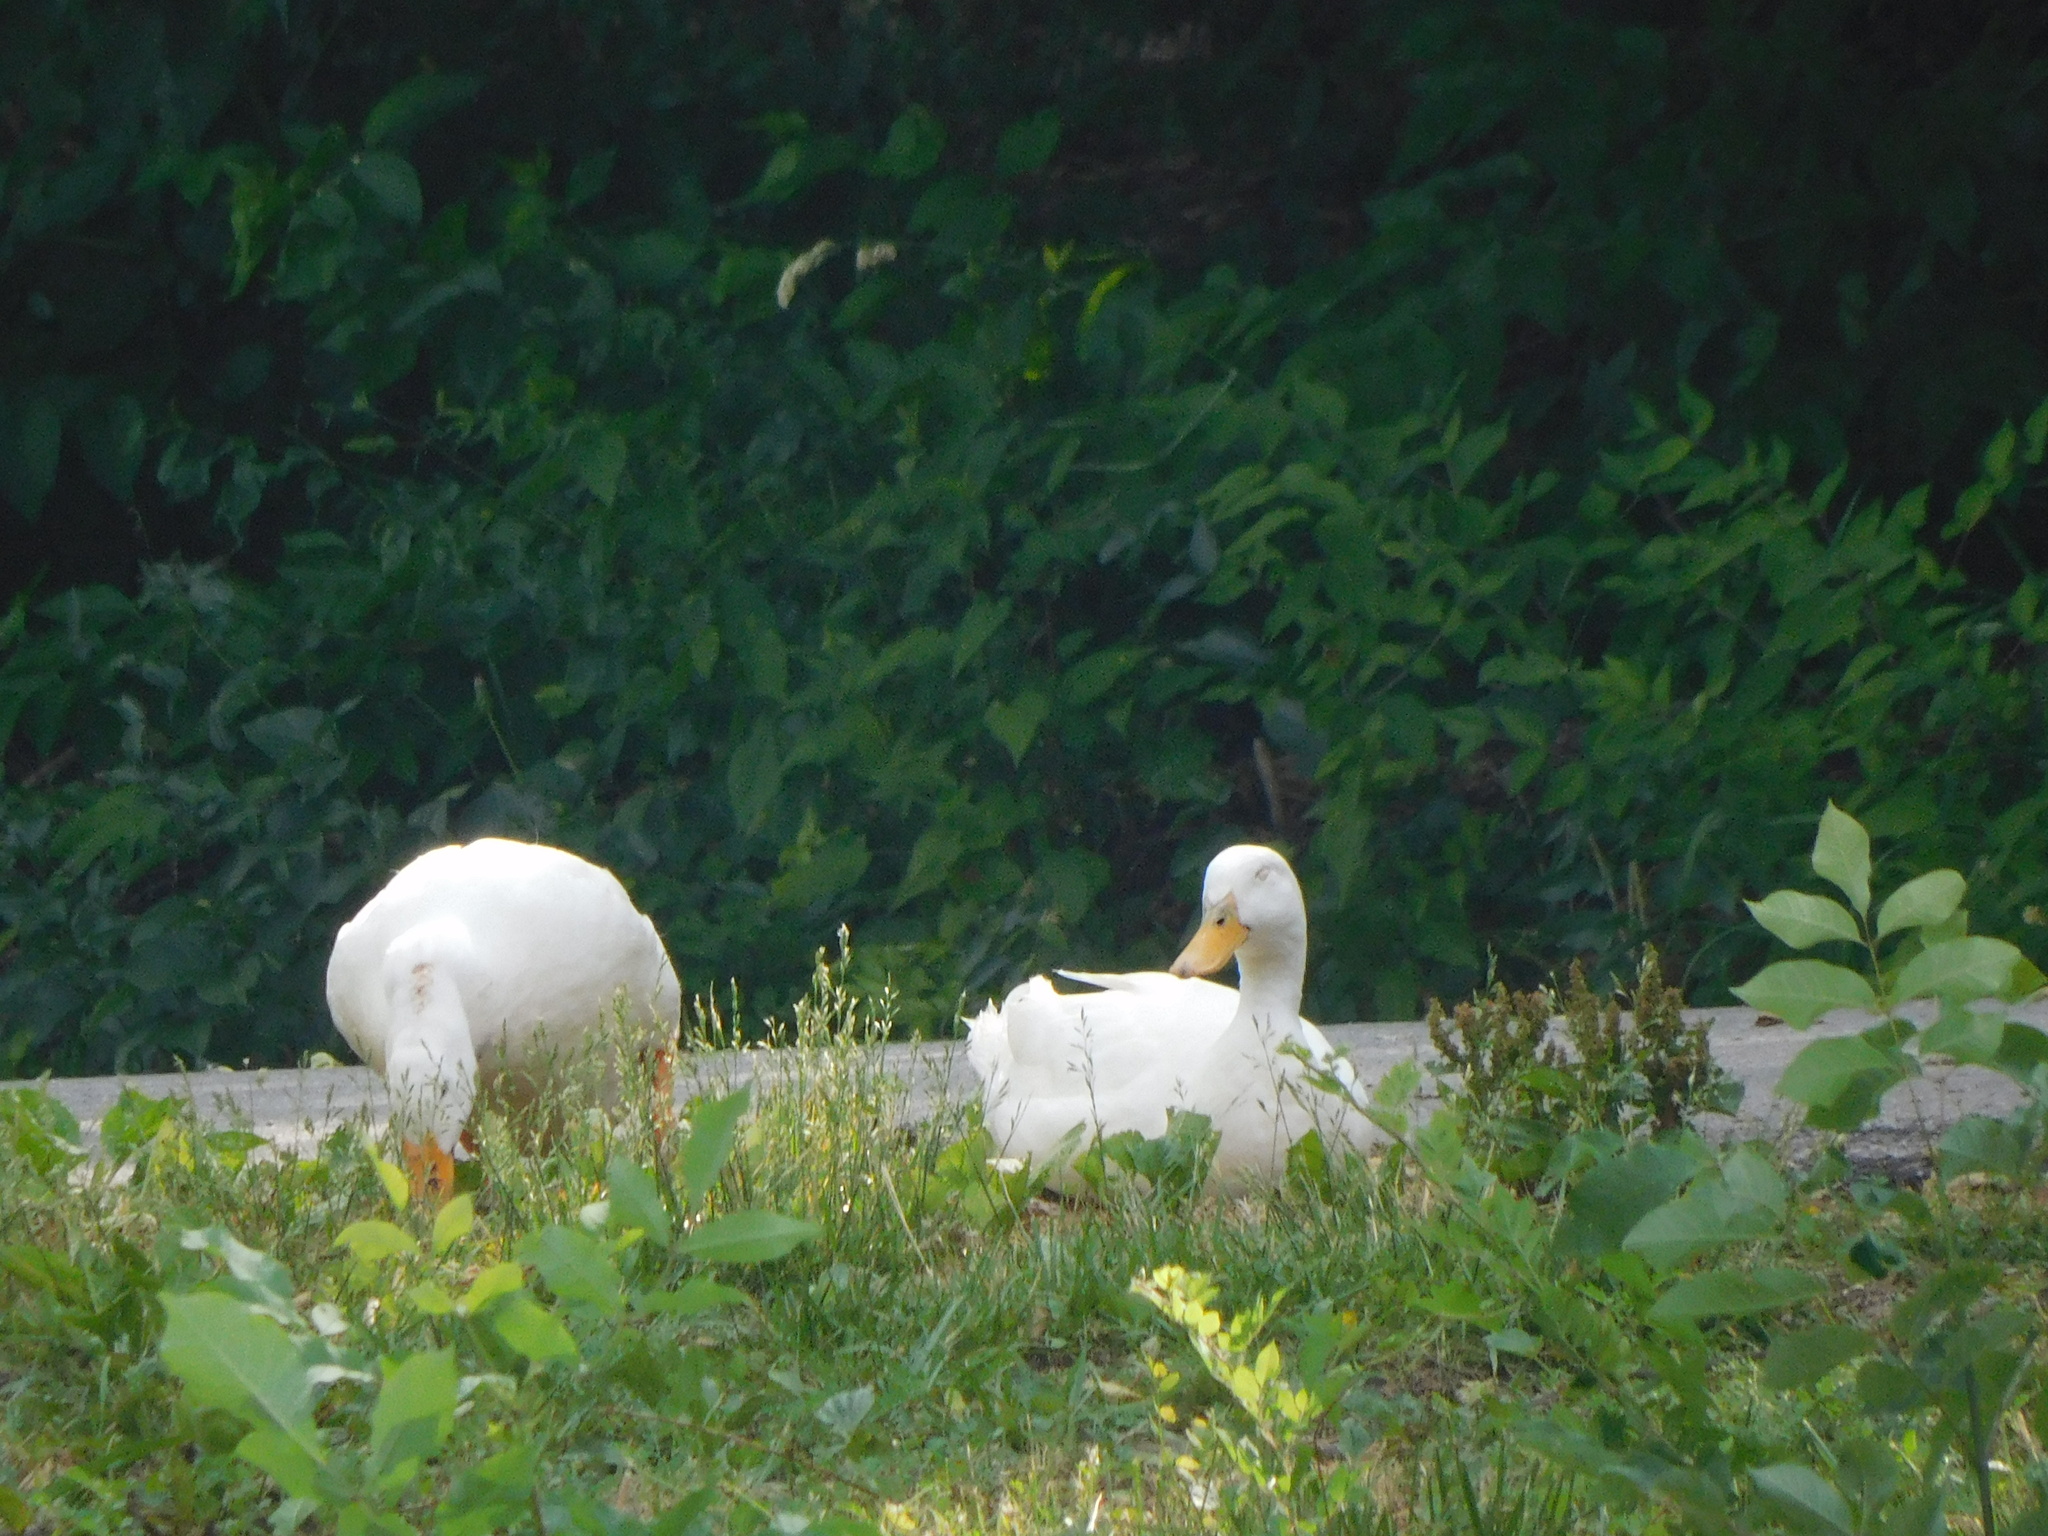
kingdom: Animalia
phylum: Chordata
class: Aves
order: Anseriformes
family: Anatidae
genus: Anas
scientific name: Anas platyrhynchos
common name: Mallard
